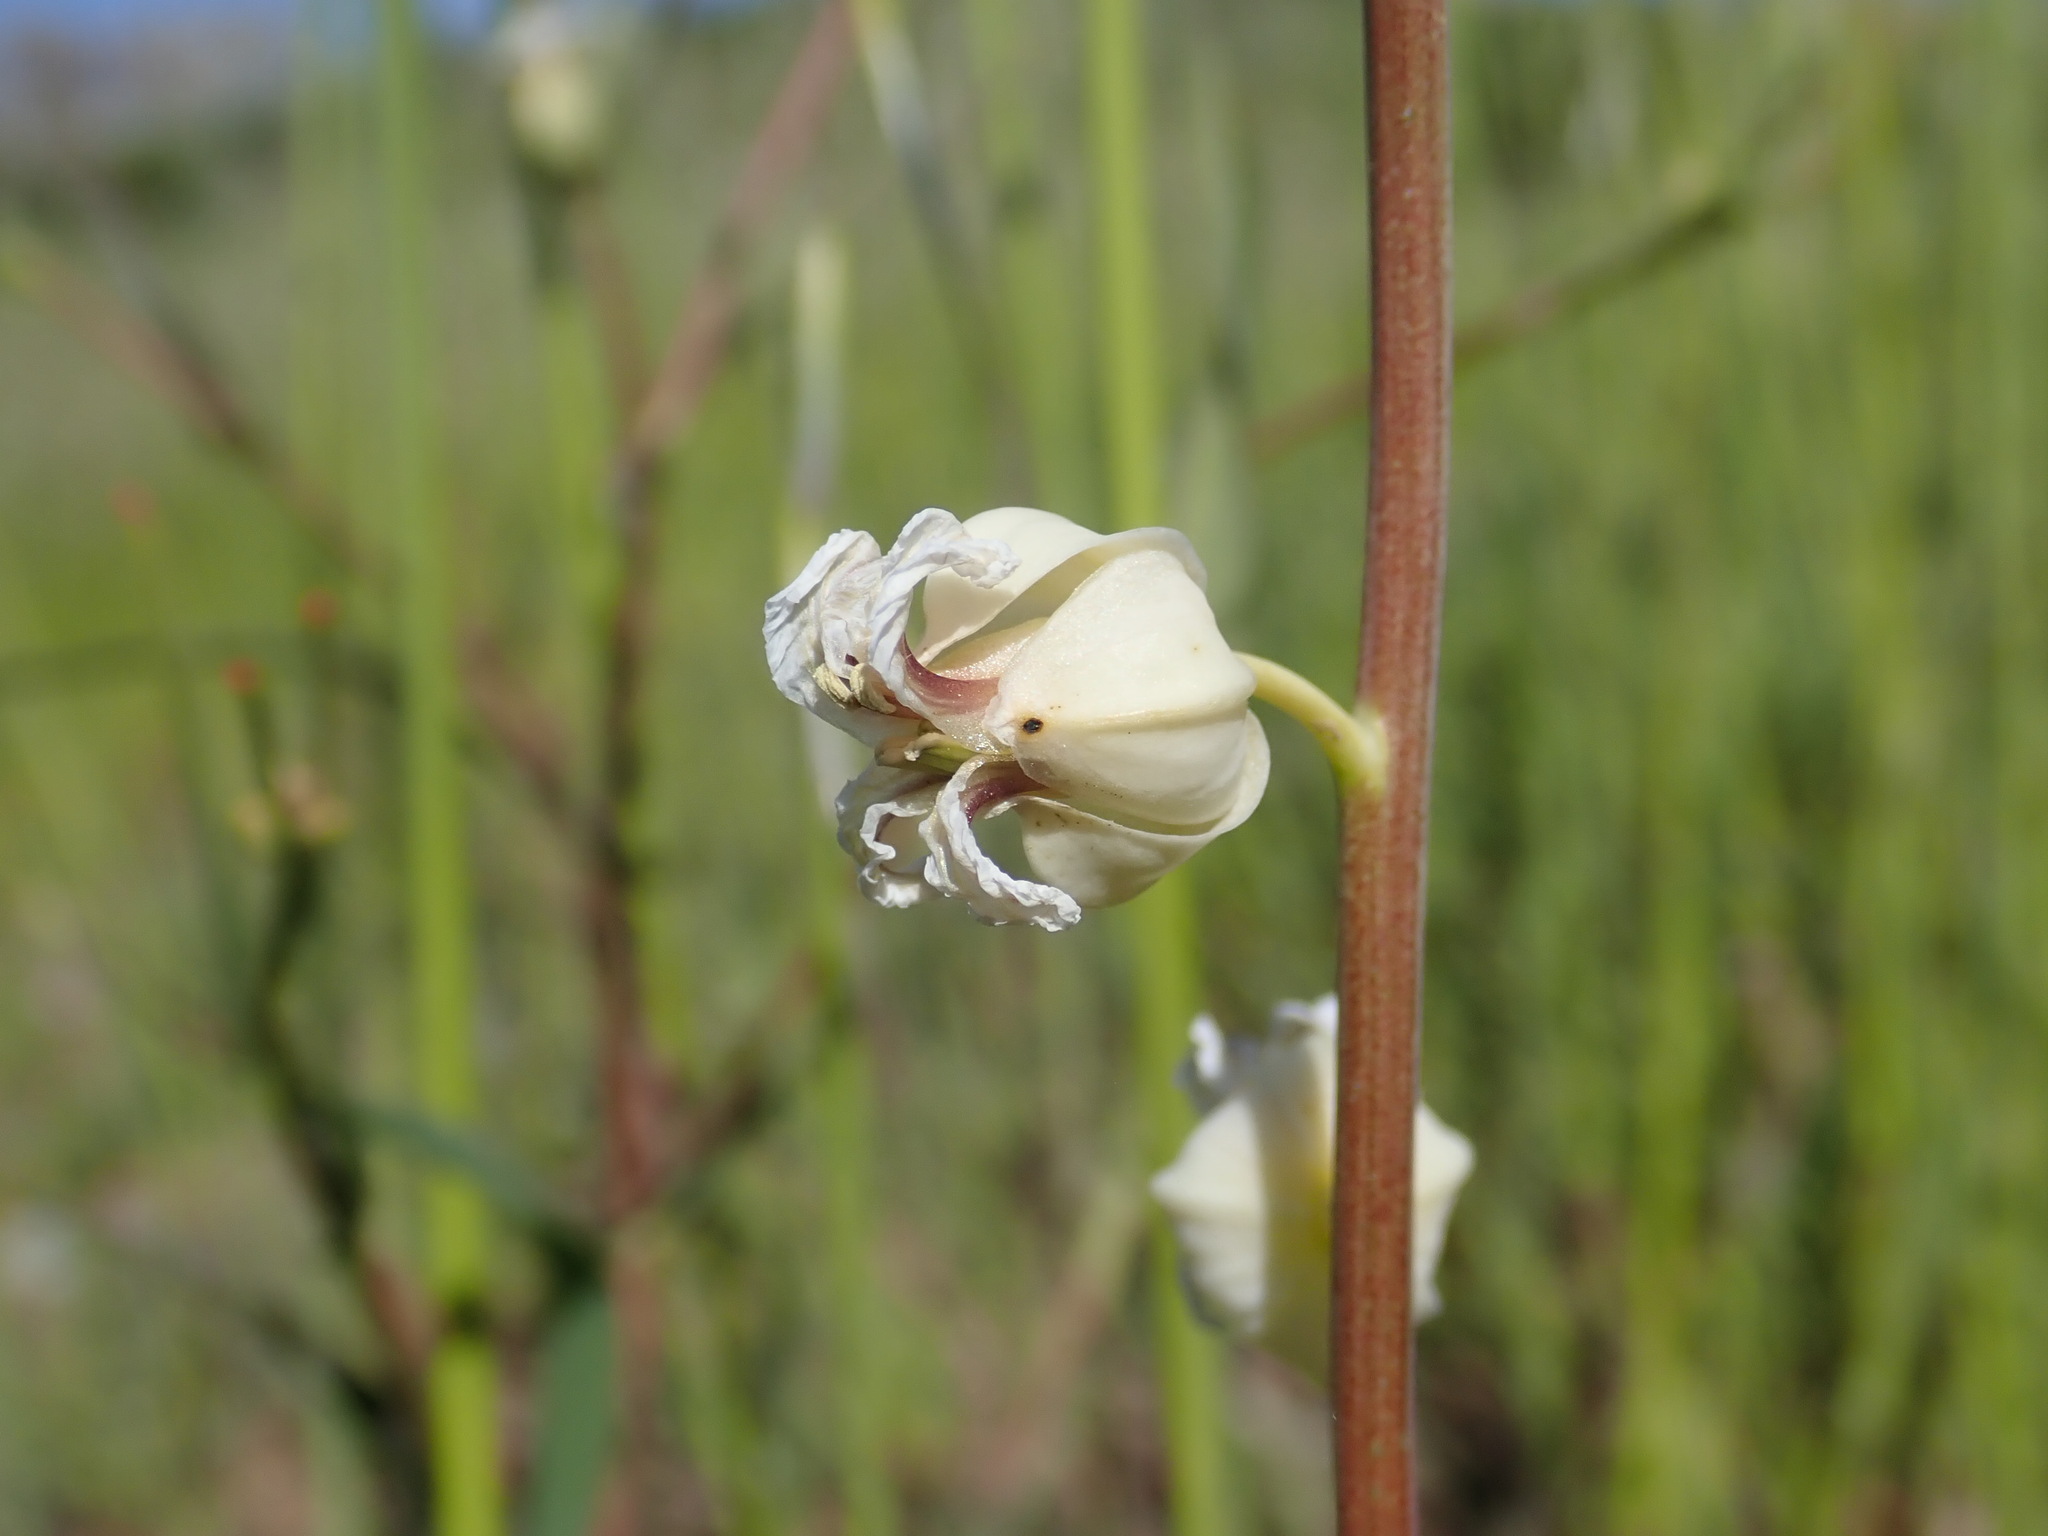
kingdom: Plantae
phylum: Tracheophyta
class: Magnoliopsida
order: Brassicales
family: Brassicaceae
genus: Streptanthus
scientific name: Streptanthus glandulosus
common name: Jewel-flower
